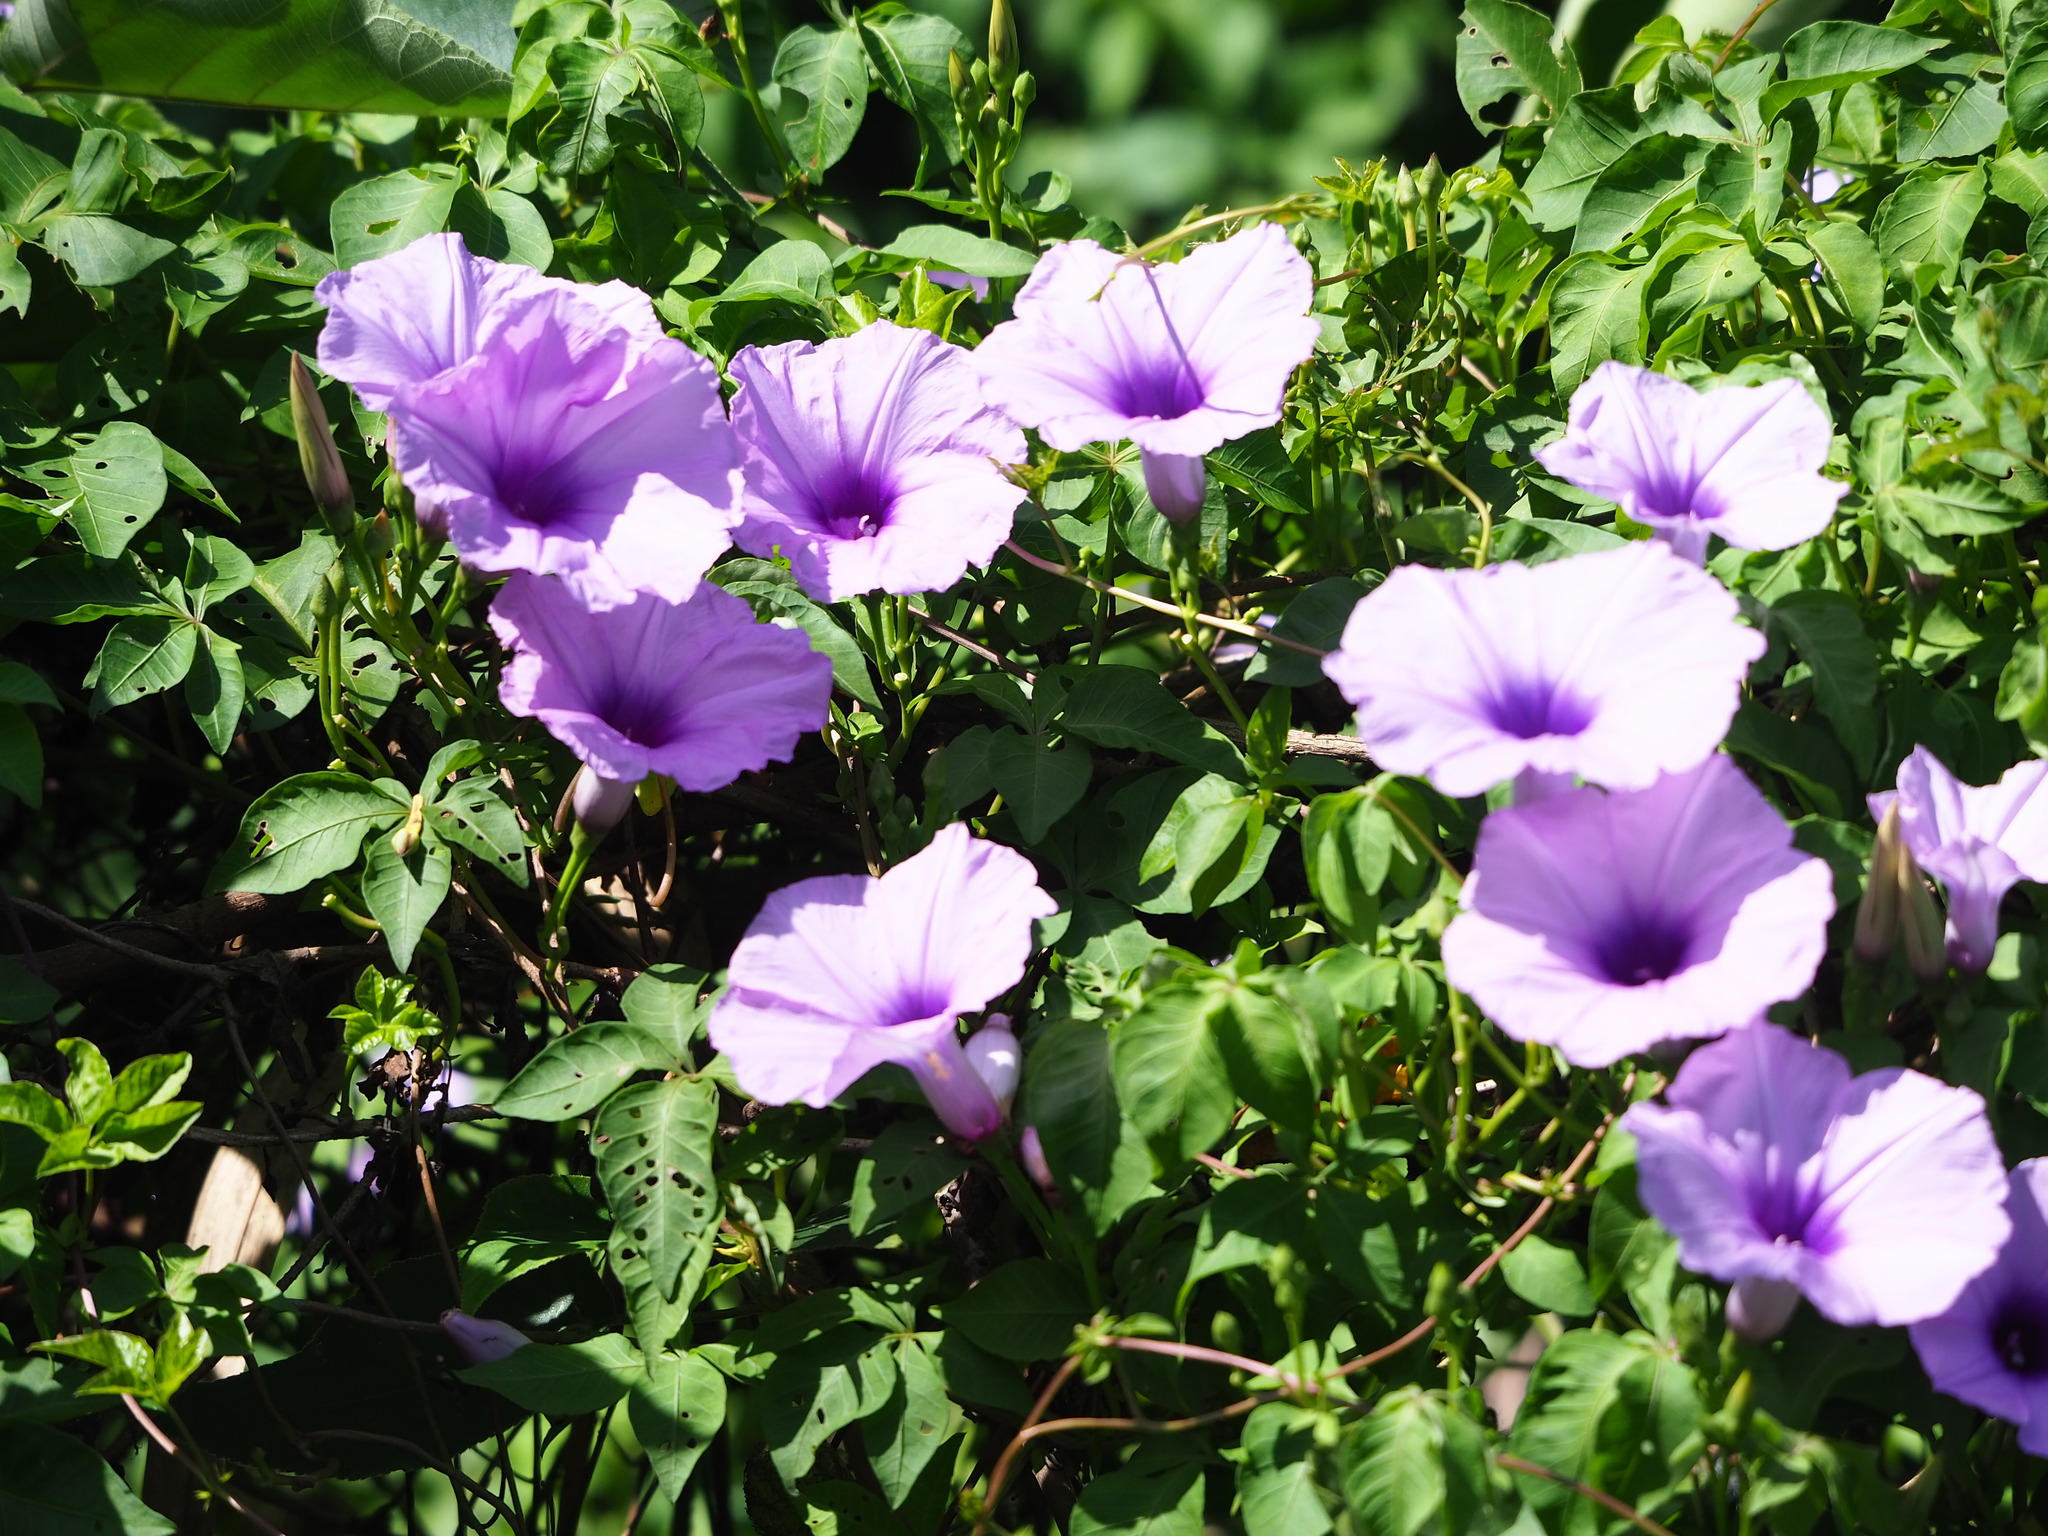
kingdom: Plantae
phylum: Tracheophyta
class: Magnoliopsida
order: Solanales
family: Convolvulaceae
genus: Ipomoea
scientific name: Ipomoea cairica
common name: Mile a minute vine
